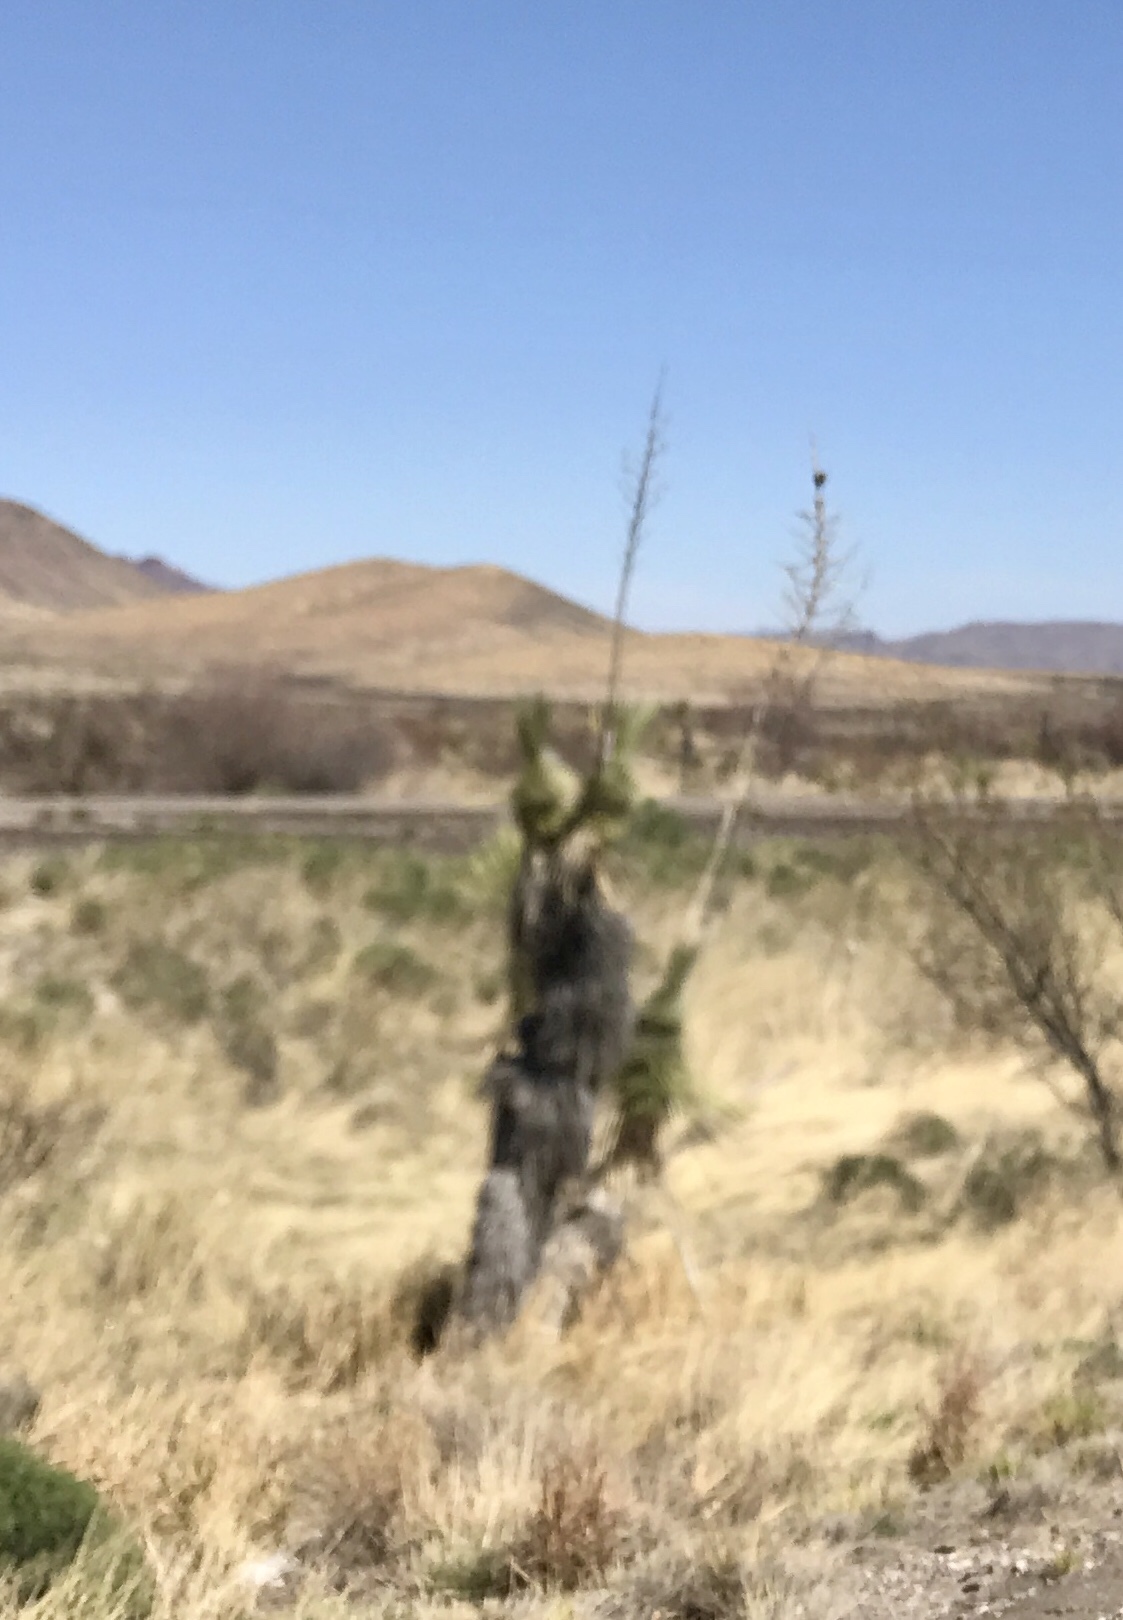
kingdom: Plantae
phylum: Tracheophyta
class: Liliopsida
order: Asparagales
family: Asparagaceae
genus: Yucca
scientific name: Yucca elata
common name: Palmella
